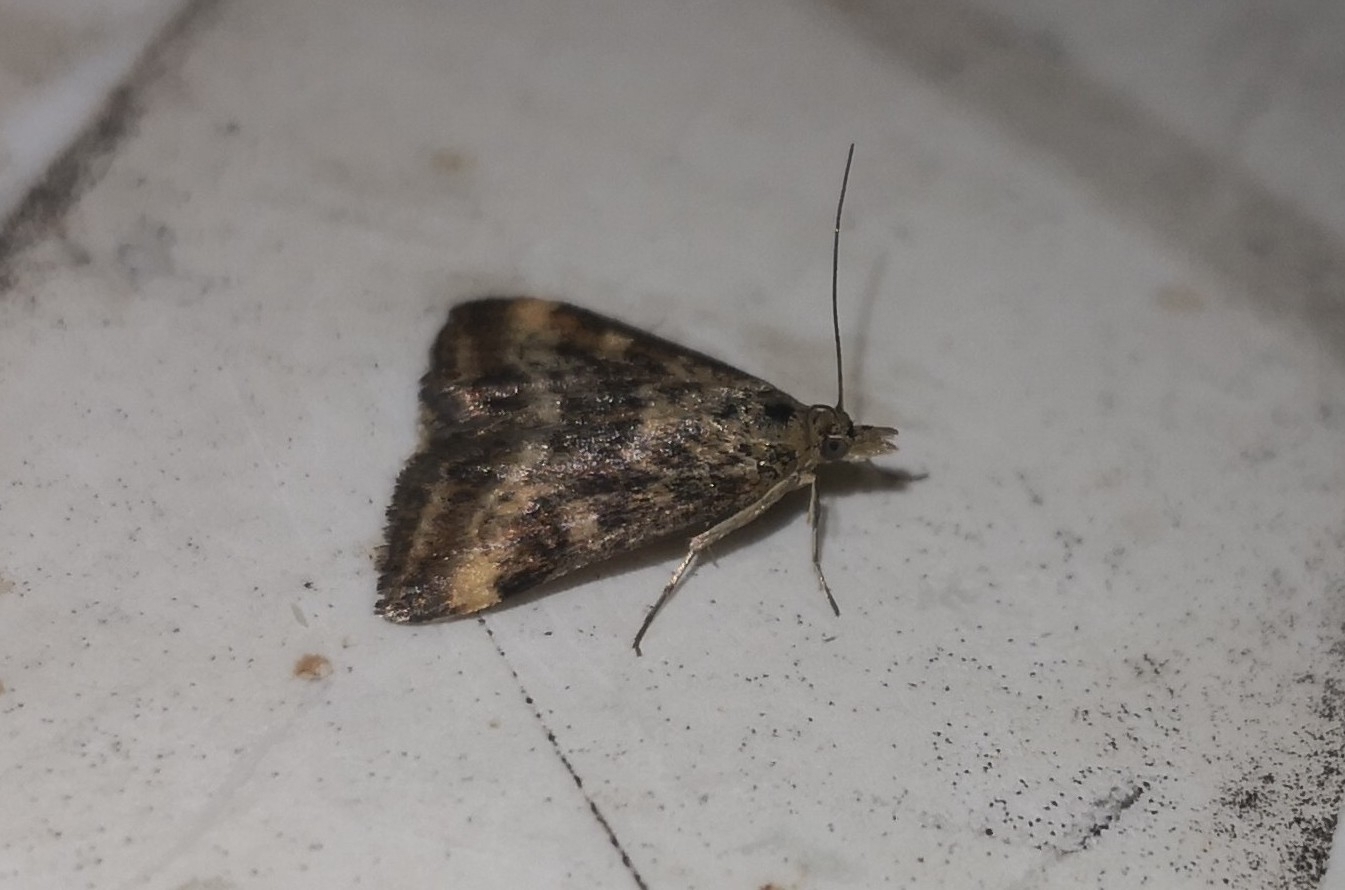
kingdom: Animalia
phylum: Arthropoda
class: Insecta
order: Lepidoptera
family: Crambidae
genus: Pyrausta
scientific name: Pyrausta despicata
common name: Straw-barred pearl
